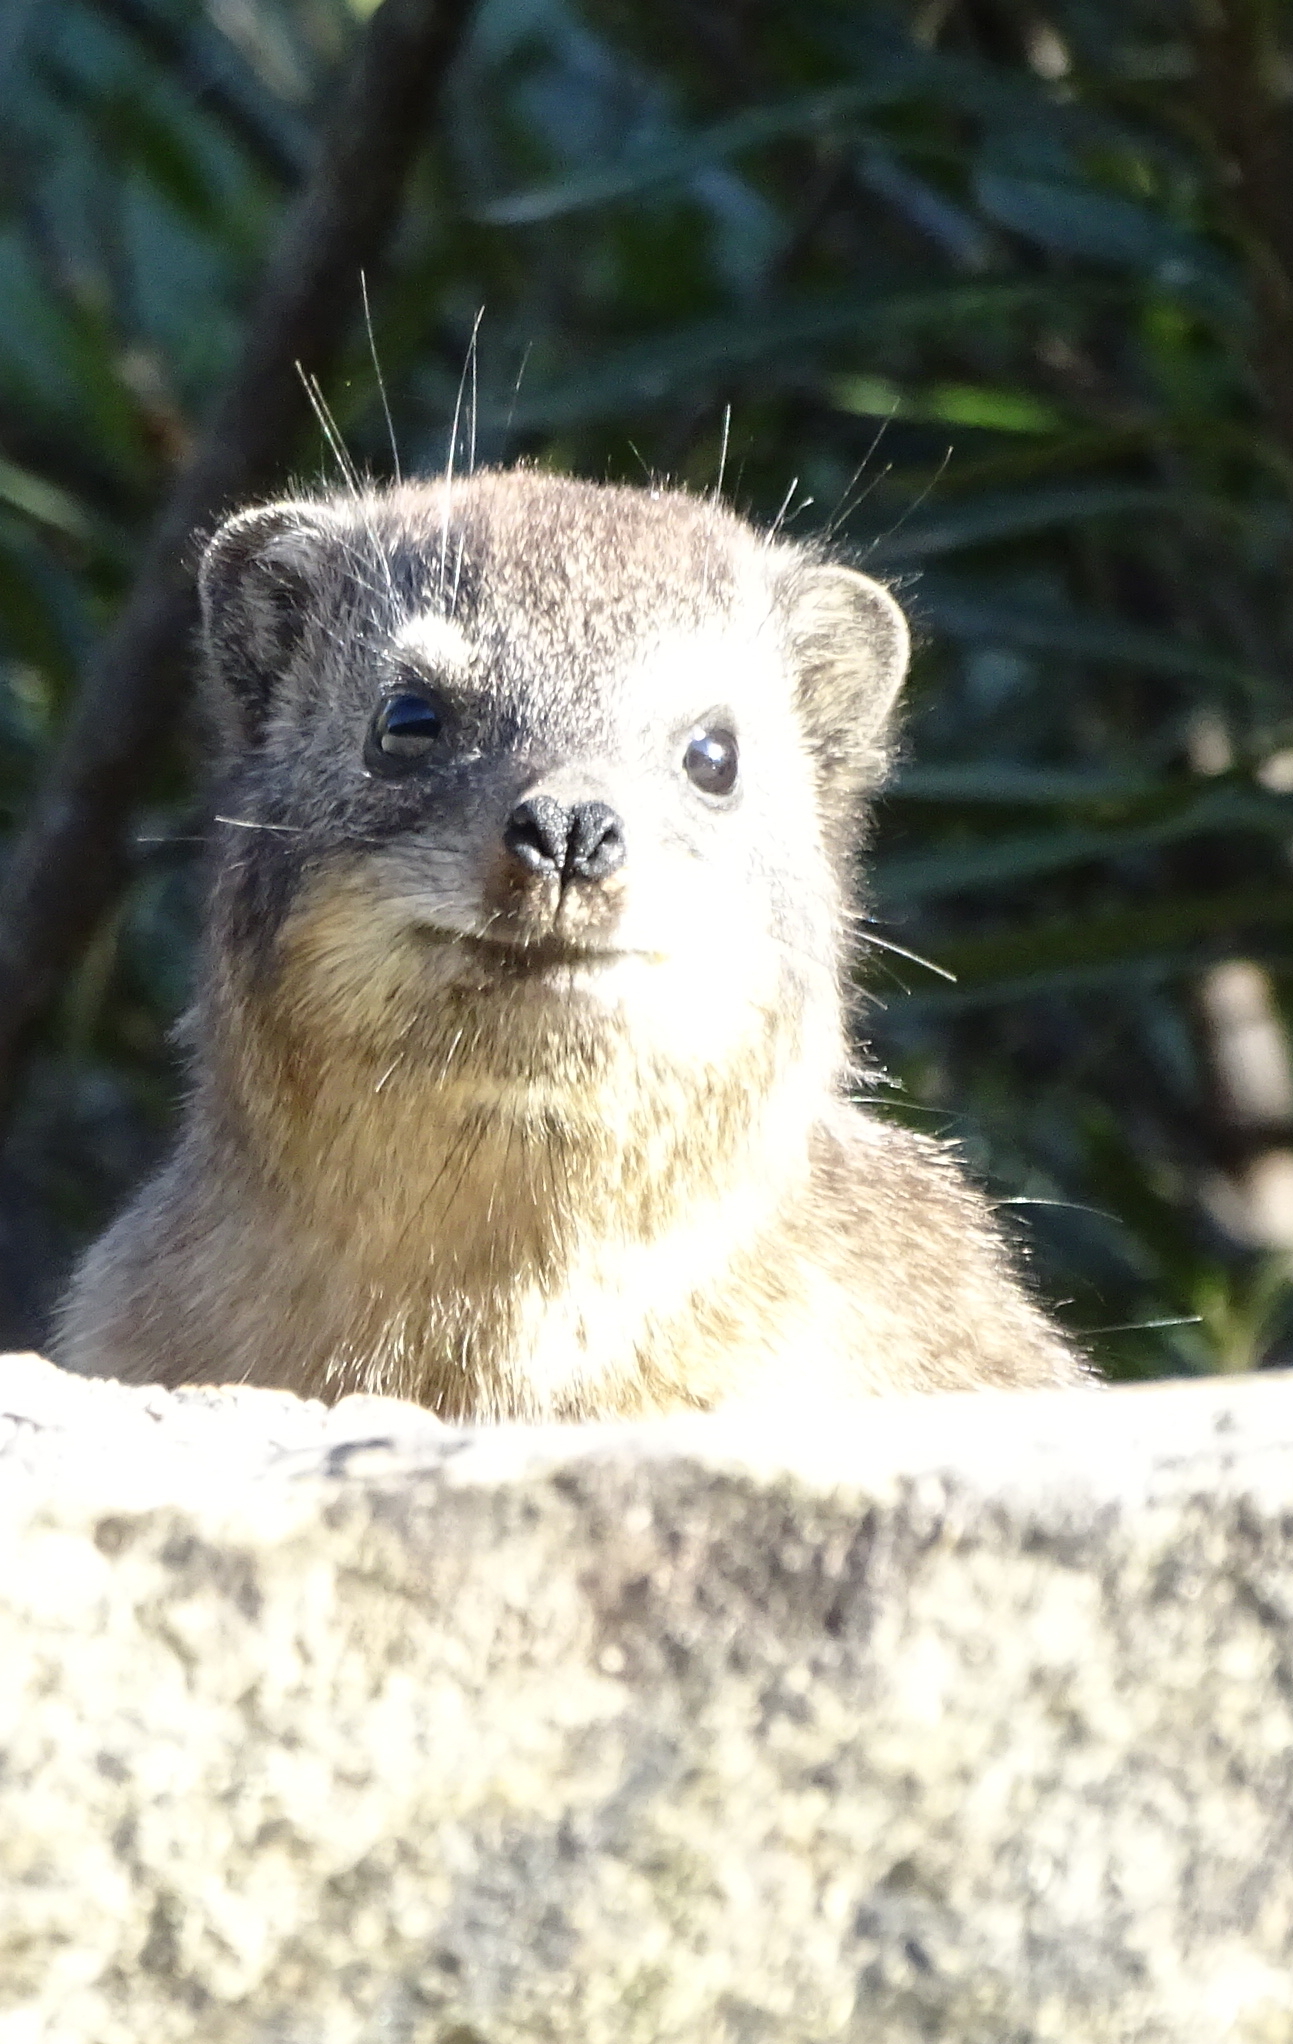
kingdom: Animalia
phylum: Chordata
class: Mammalia
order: Hyracoidea
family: Procaviidae
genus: Procavia
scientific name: Procavia capensis
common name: Rock hyrax
